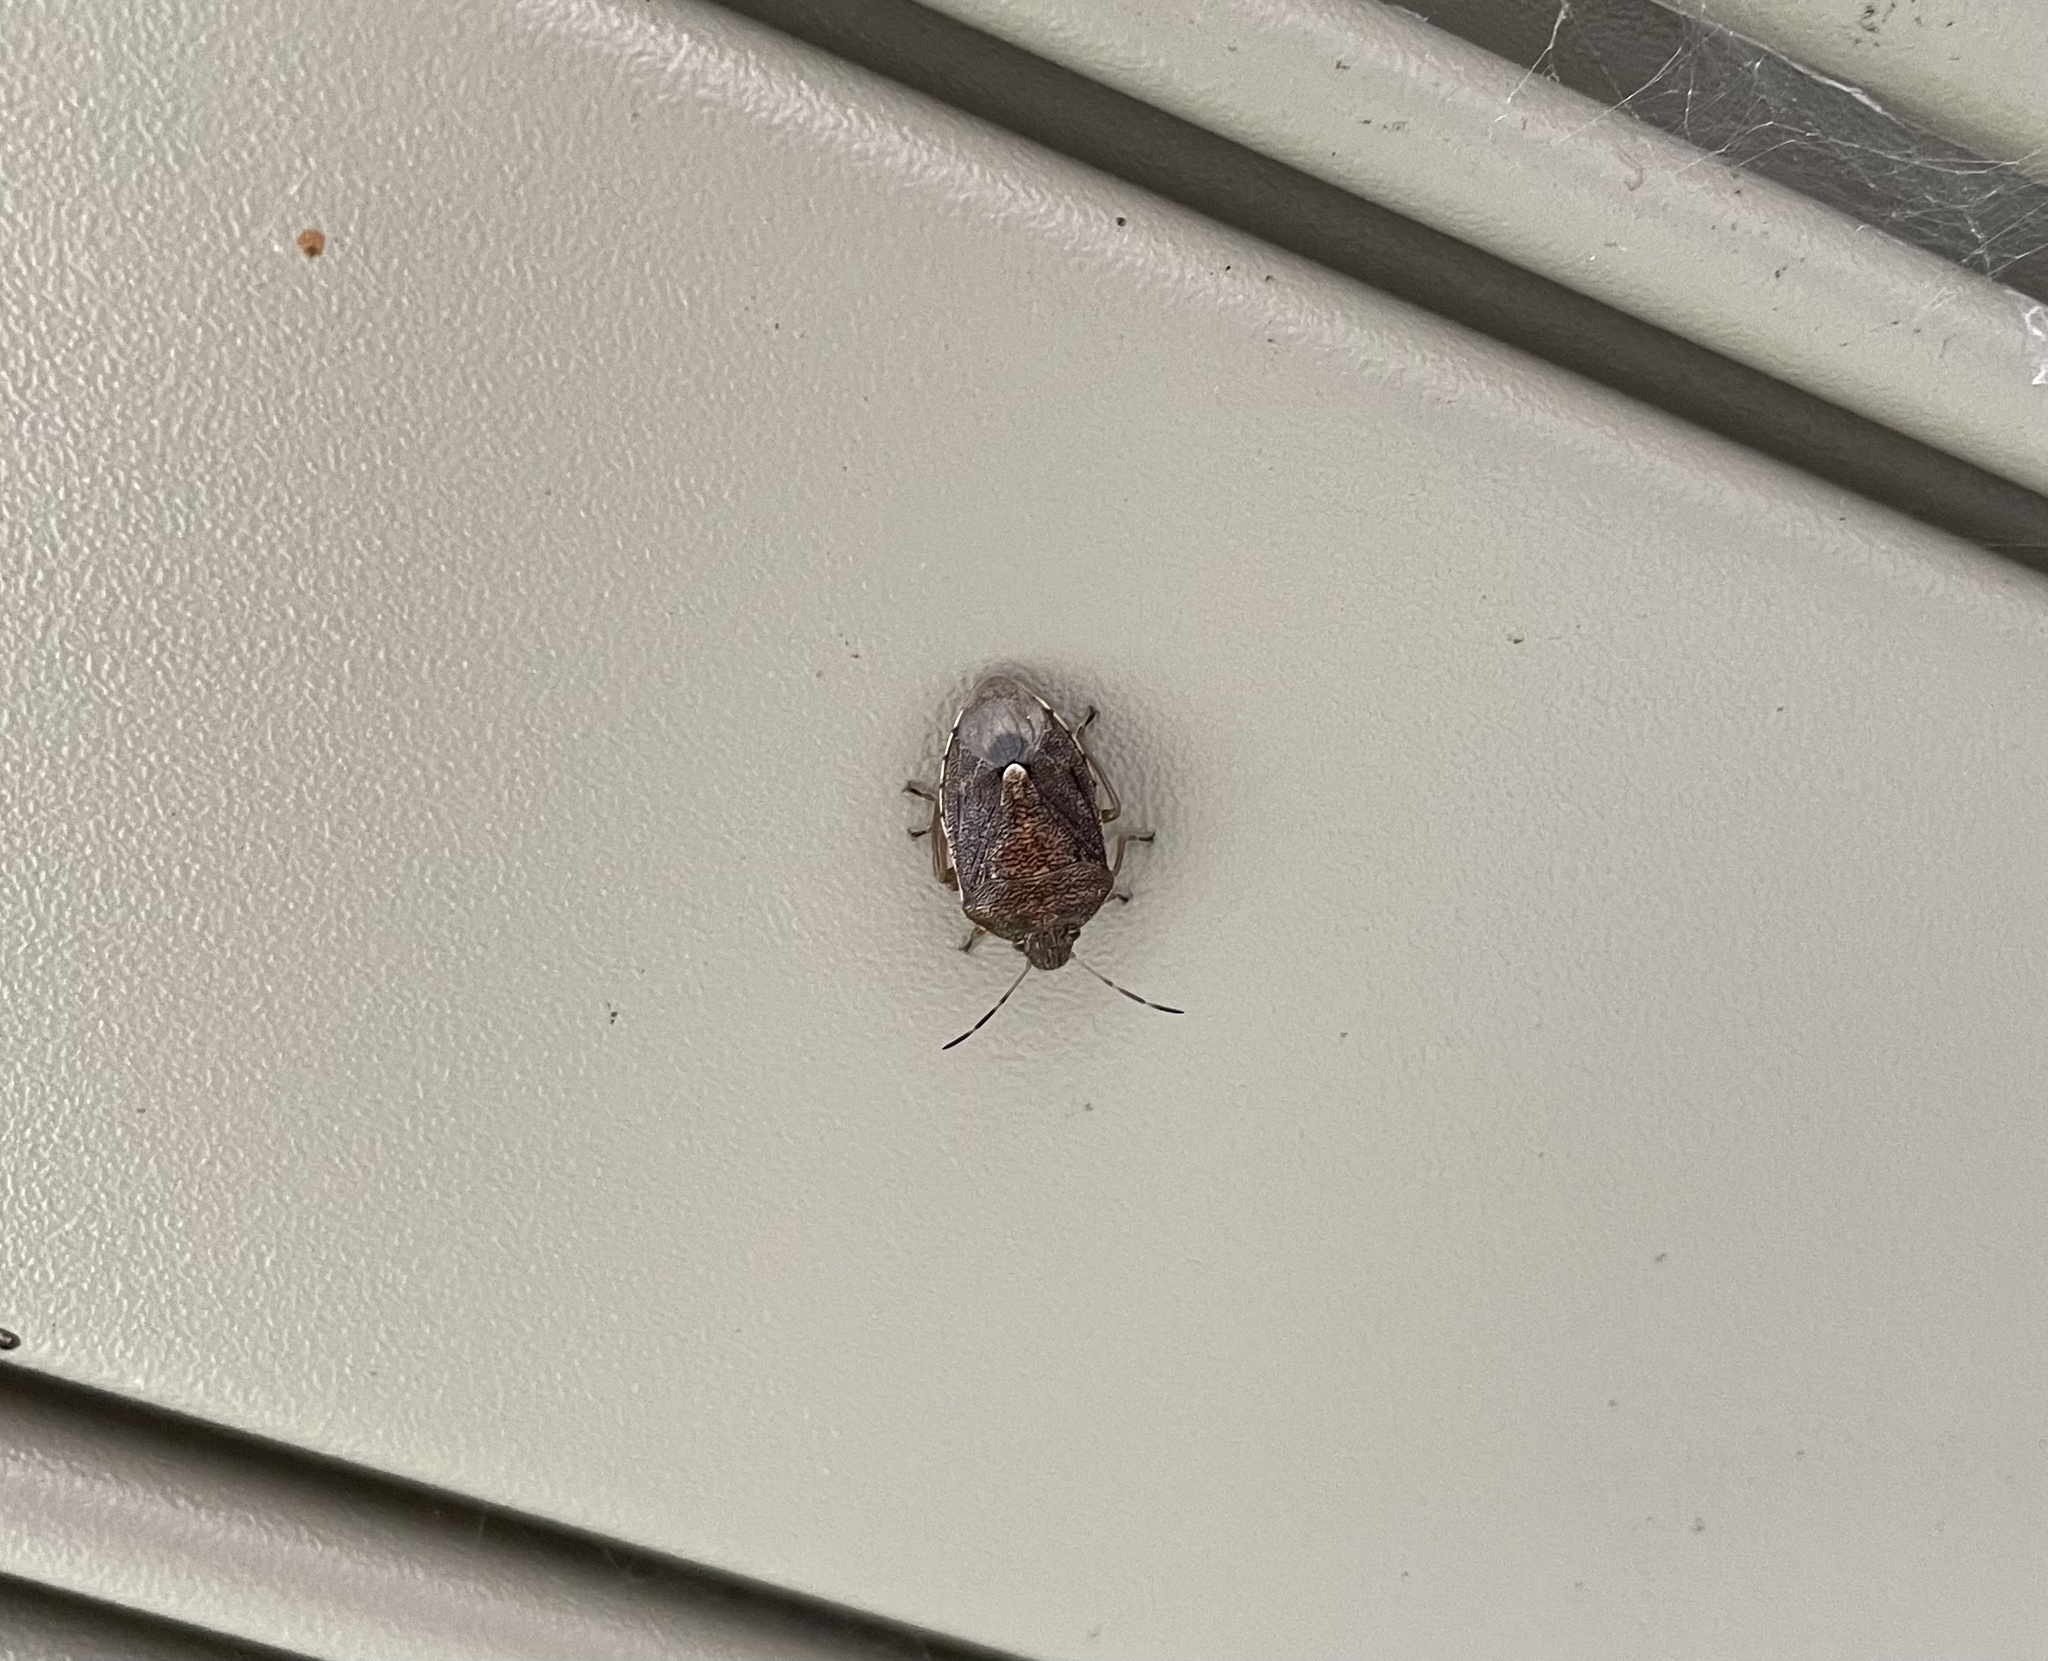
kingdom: Animalia
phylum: Arthropoda
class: Insecta
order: Hemiptera
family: Pentatomidae
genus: Banasa
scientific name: Banasa sordida
